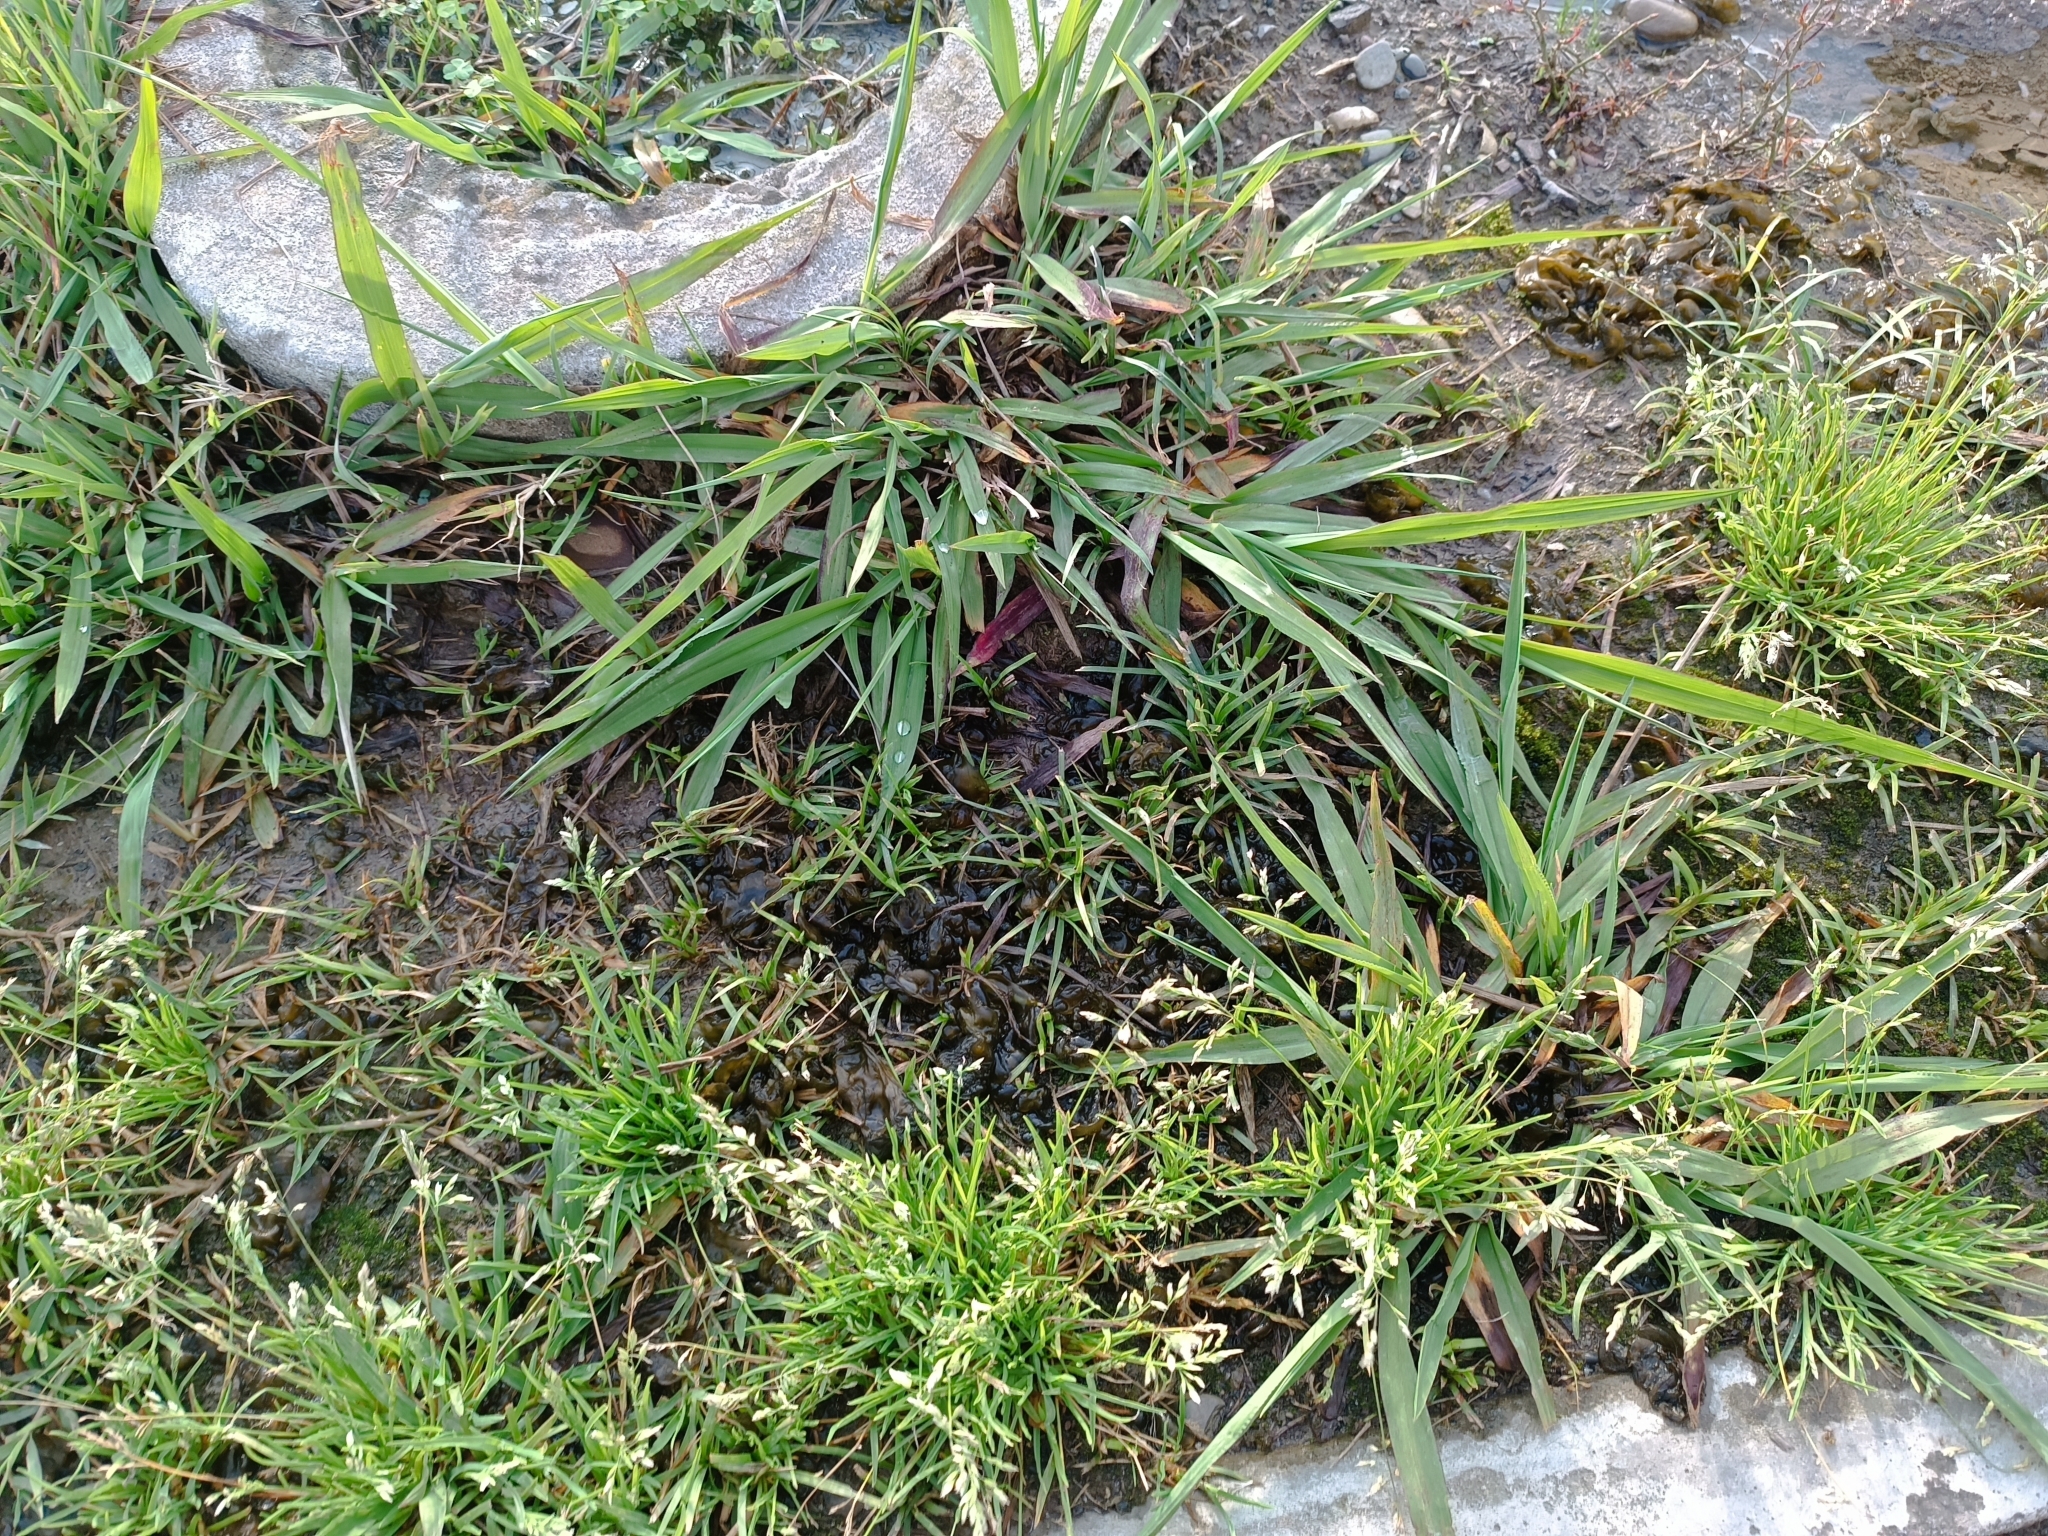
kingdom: Bacteria
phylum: Cyanobacteria
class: Cyanobacteriia
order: Cyanobacteriales
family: Nostocaceae
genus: Nostoc
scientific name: Nostoc commune
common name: Star jelly
